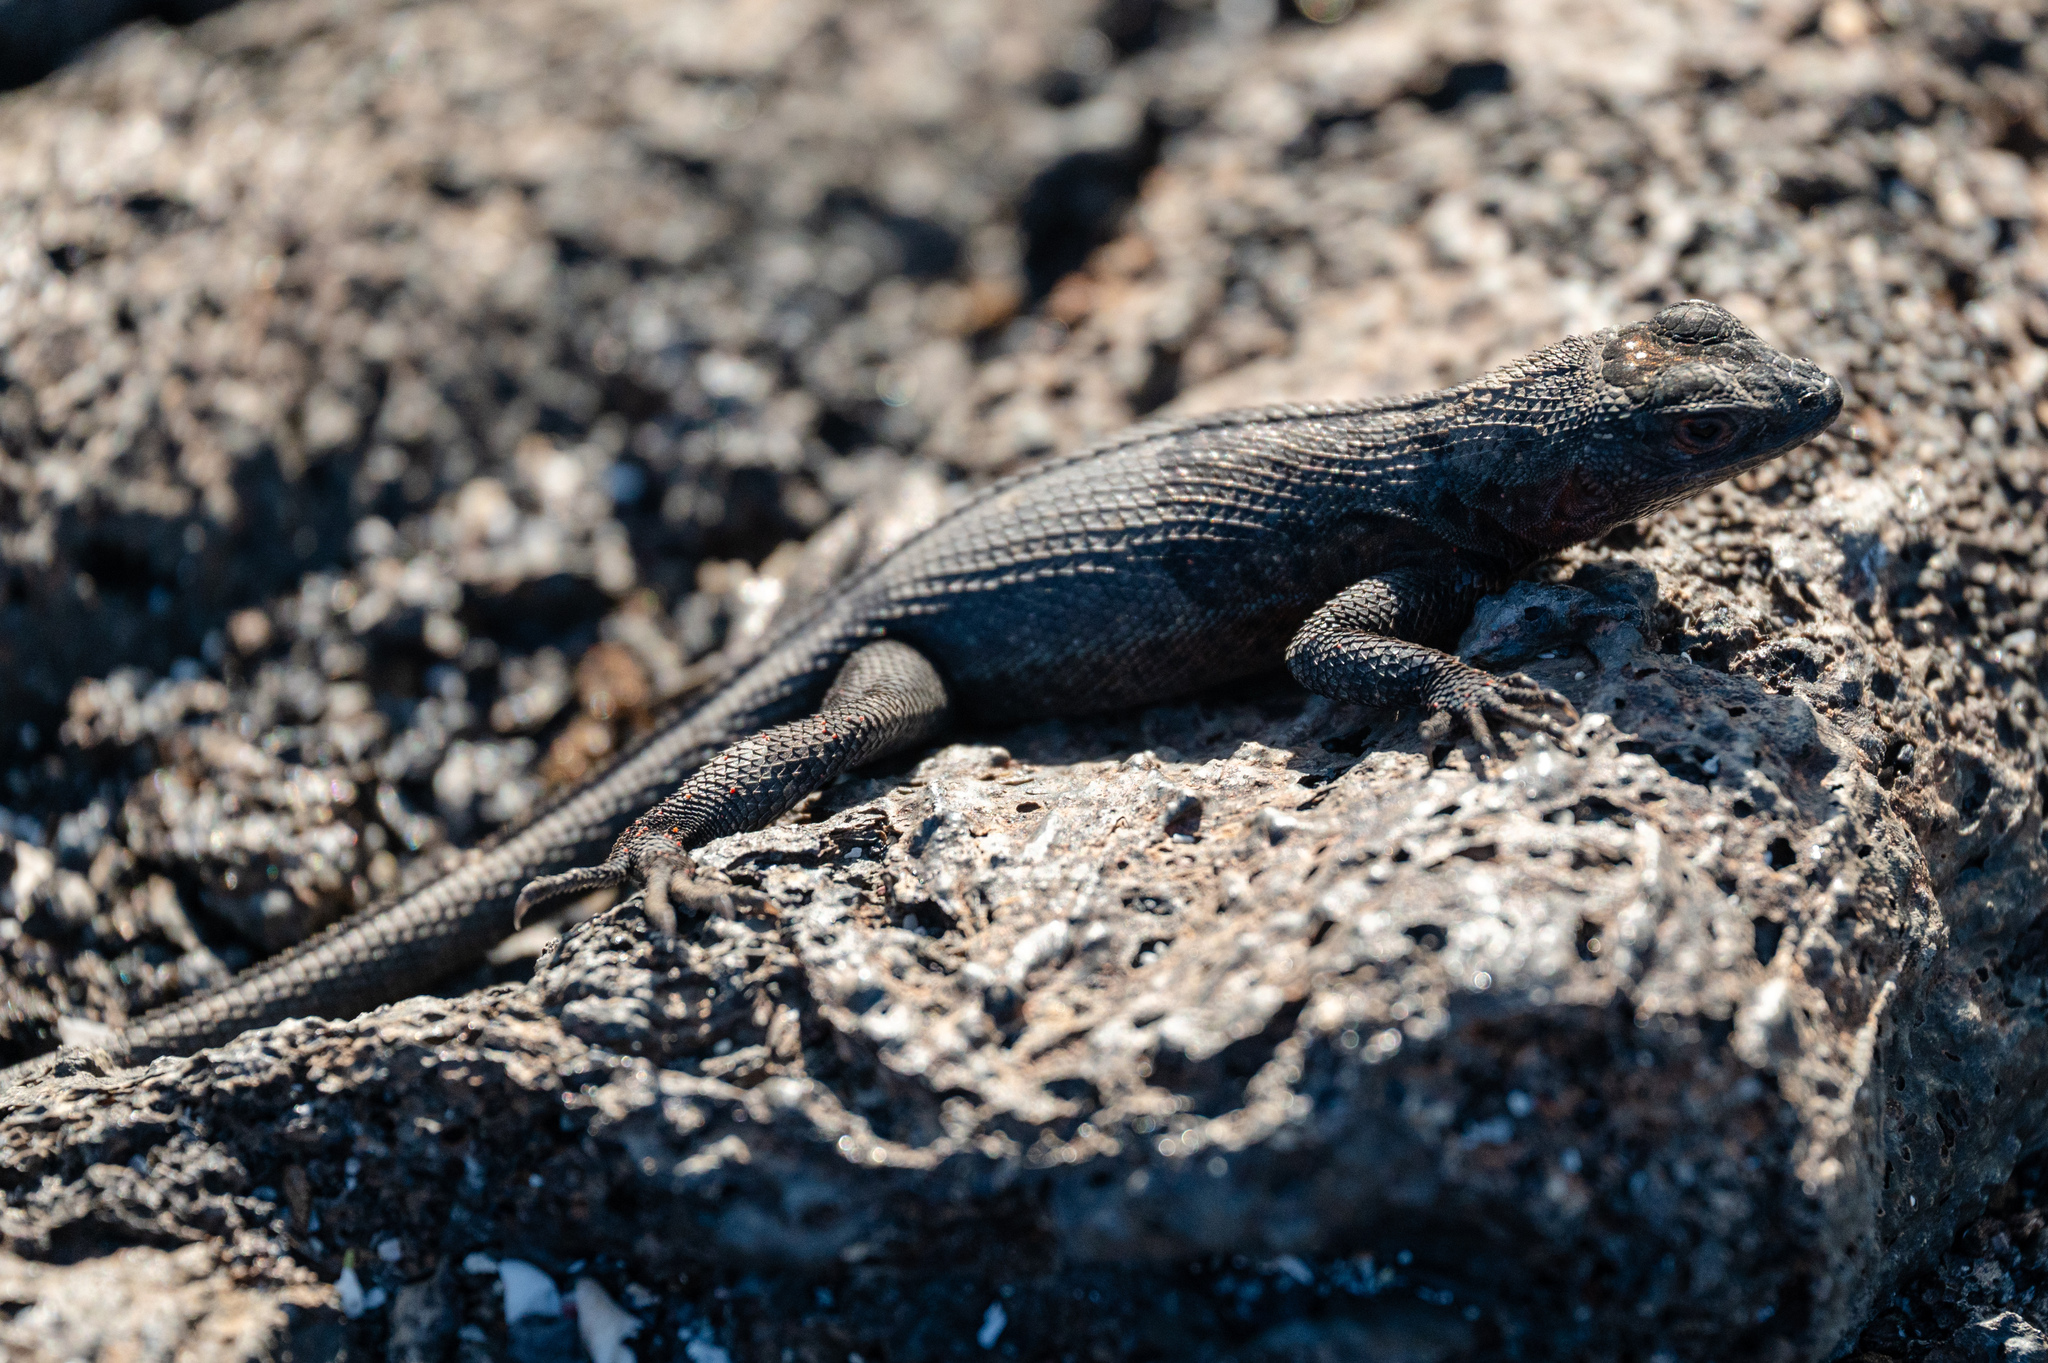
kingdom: Animalia
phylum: Chordata
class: Squamata
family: Tropiduridae
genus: Microlophus
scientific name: Microlophus albemarlensis
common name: Galapagos lava lizard
